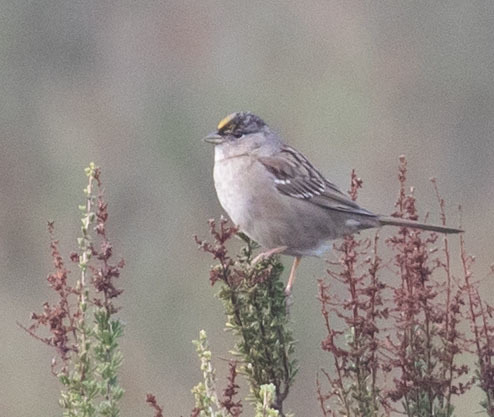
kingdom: Animalia
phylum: Chordata
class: Aves
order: Passeriformes
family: Passerellidae
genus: Zonotrichia
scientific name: Zonotrichia atricapilla
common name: Golden-crowned sparrow
